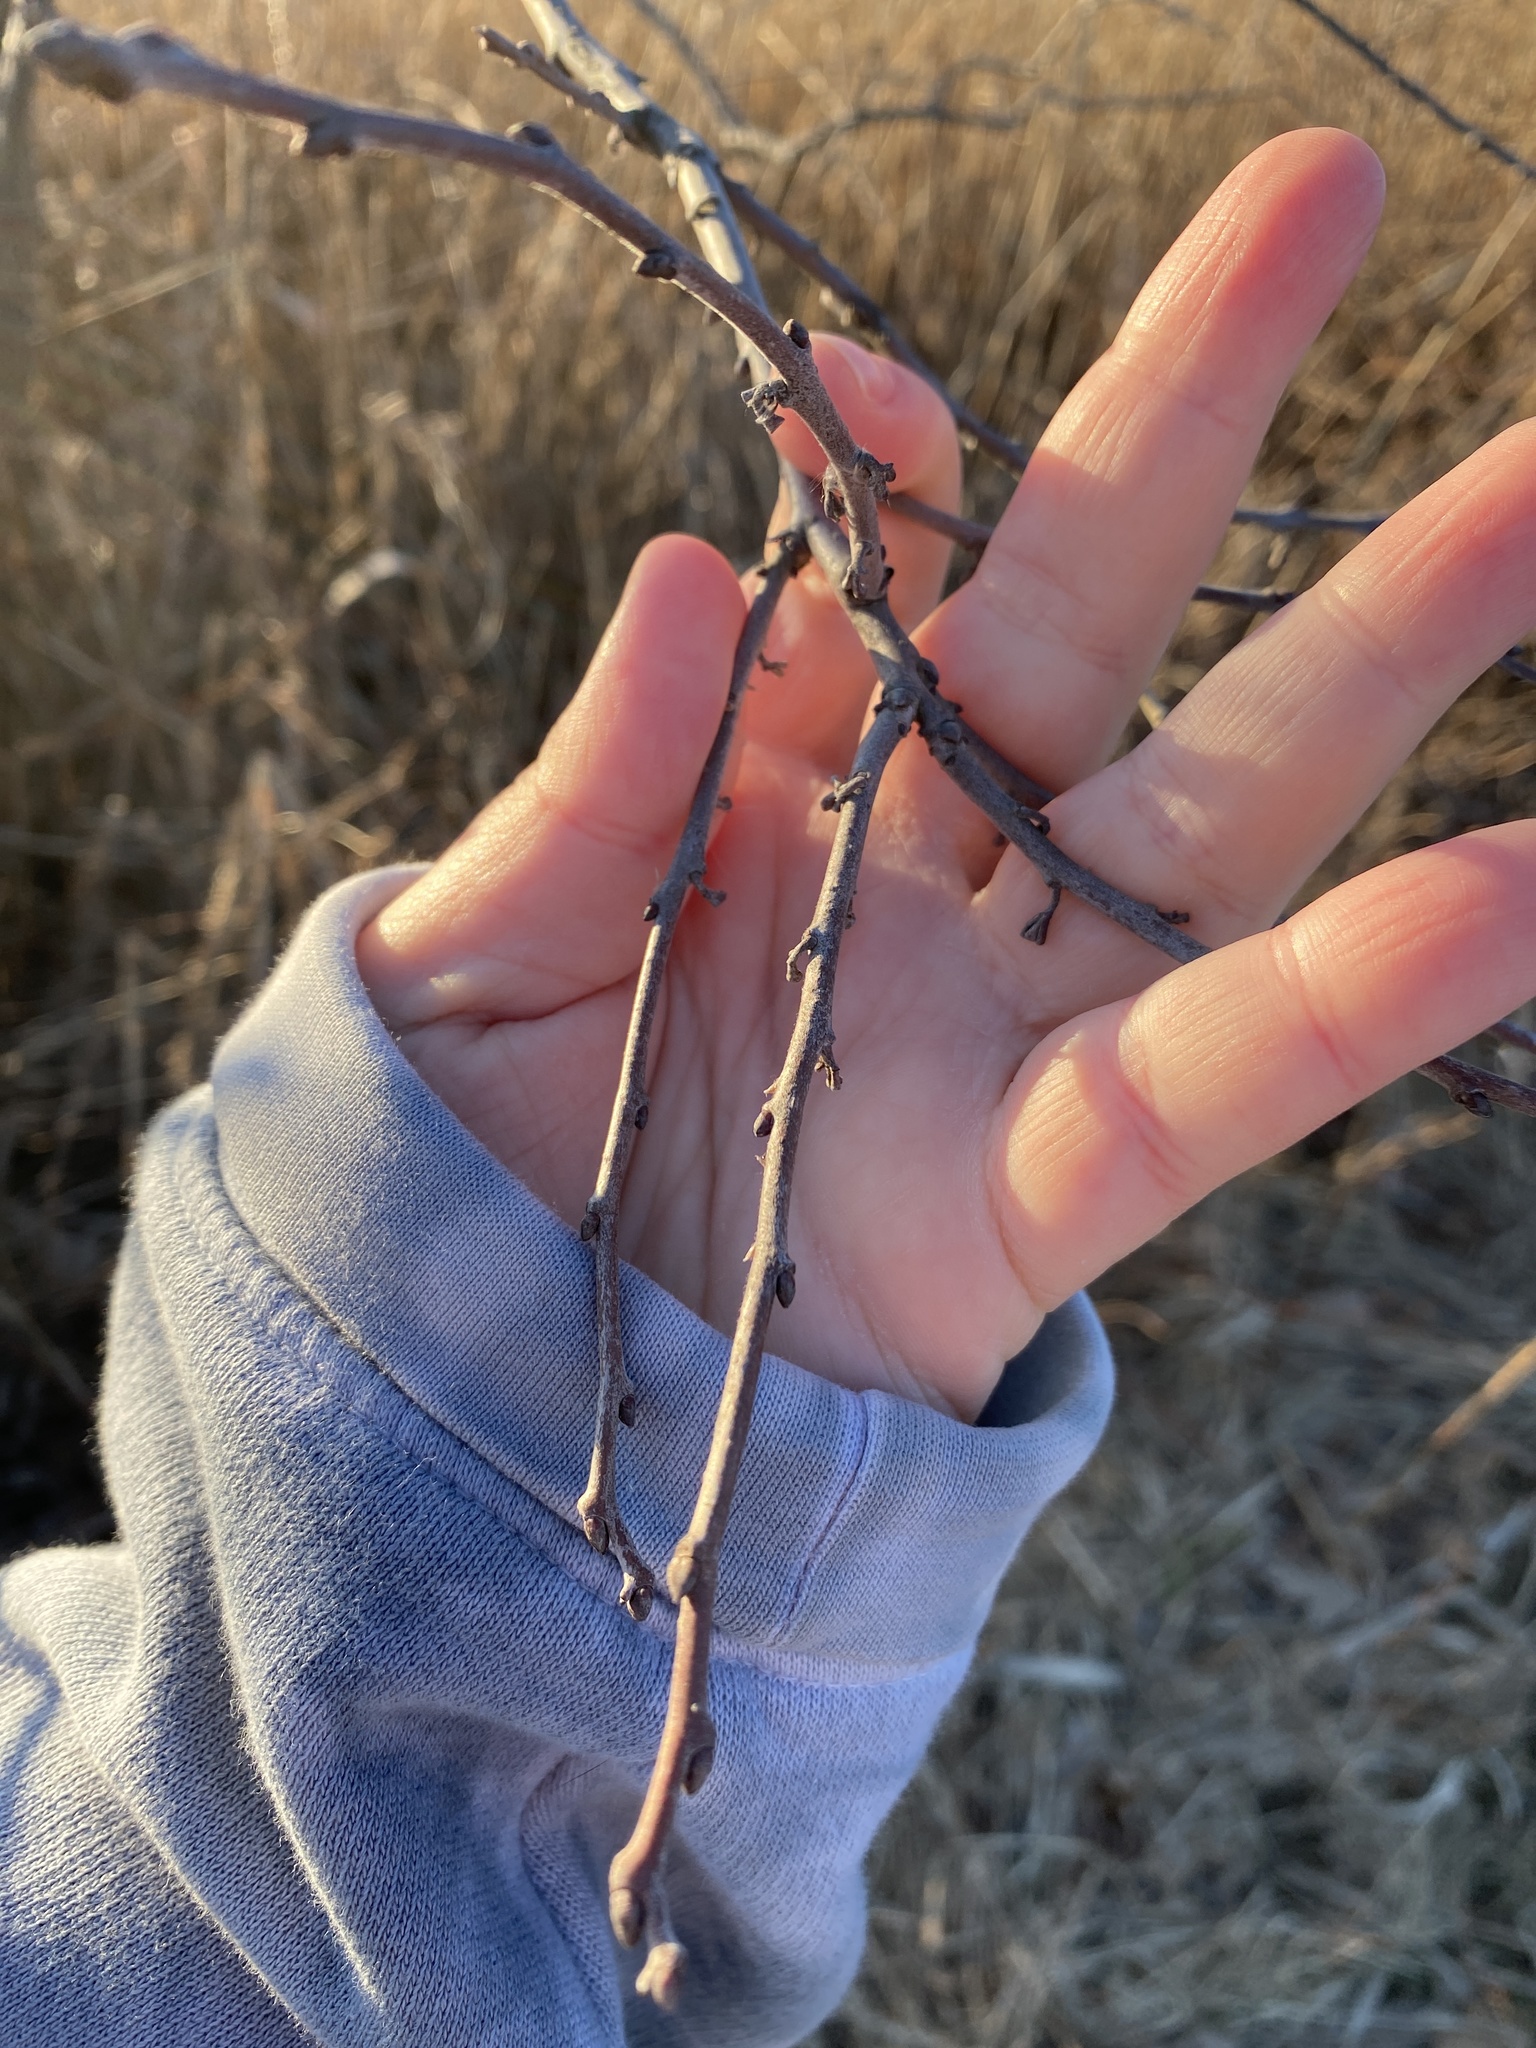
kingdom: Plantae
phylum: Tracheophyta
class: Magnoliopsida
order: Ericales
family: Ebenaceae
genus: Diospyros
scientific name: Diospyros virginiana
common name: Persimmon
